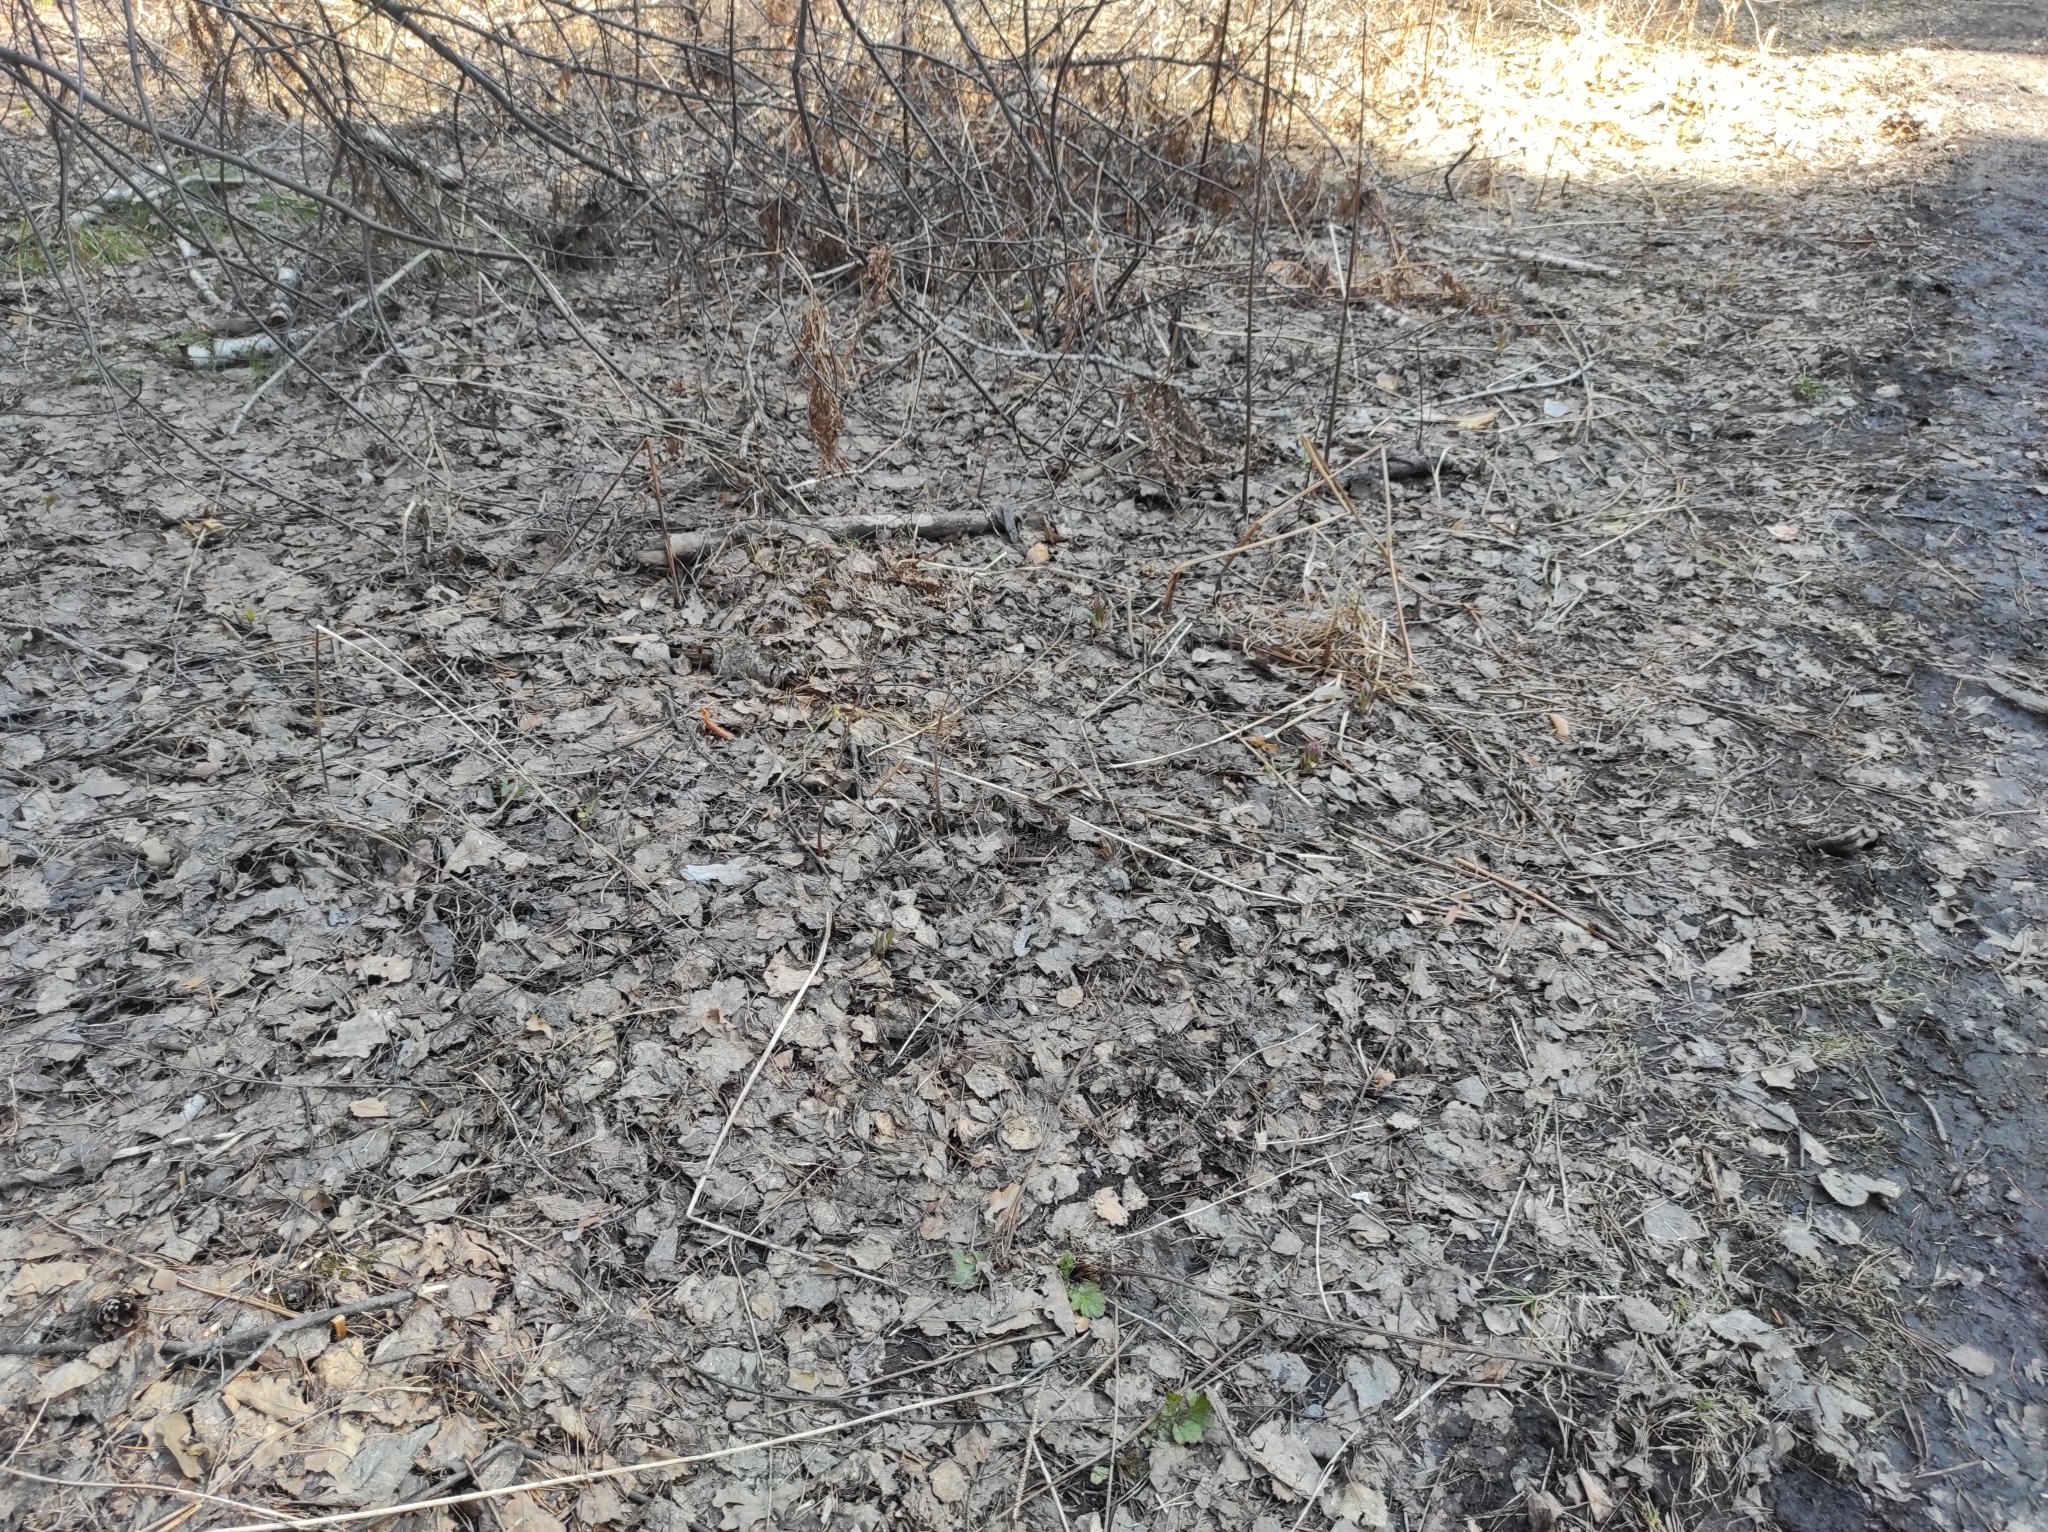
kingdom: Plantae
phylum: Tracheophyta
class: Magnoliopsida
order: Boraginales
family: Boraginaceae
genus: Pulmonaria
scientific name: Pulmonaria mollis
